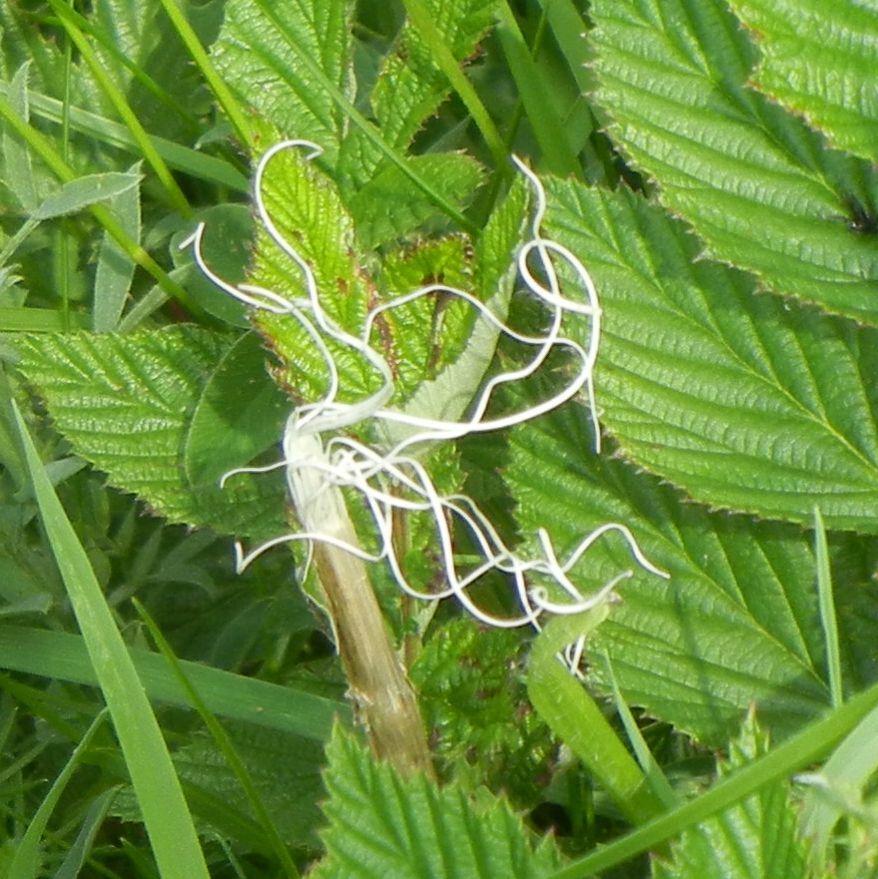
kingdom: Plantae
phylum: Tracheophyta
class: Magnoliopsida
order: Rosales
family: Rosaceae
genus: Filipendula
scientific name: Filipendula ulmaria
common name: Meadowsweet
